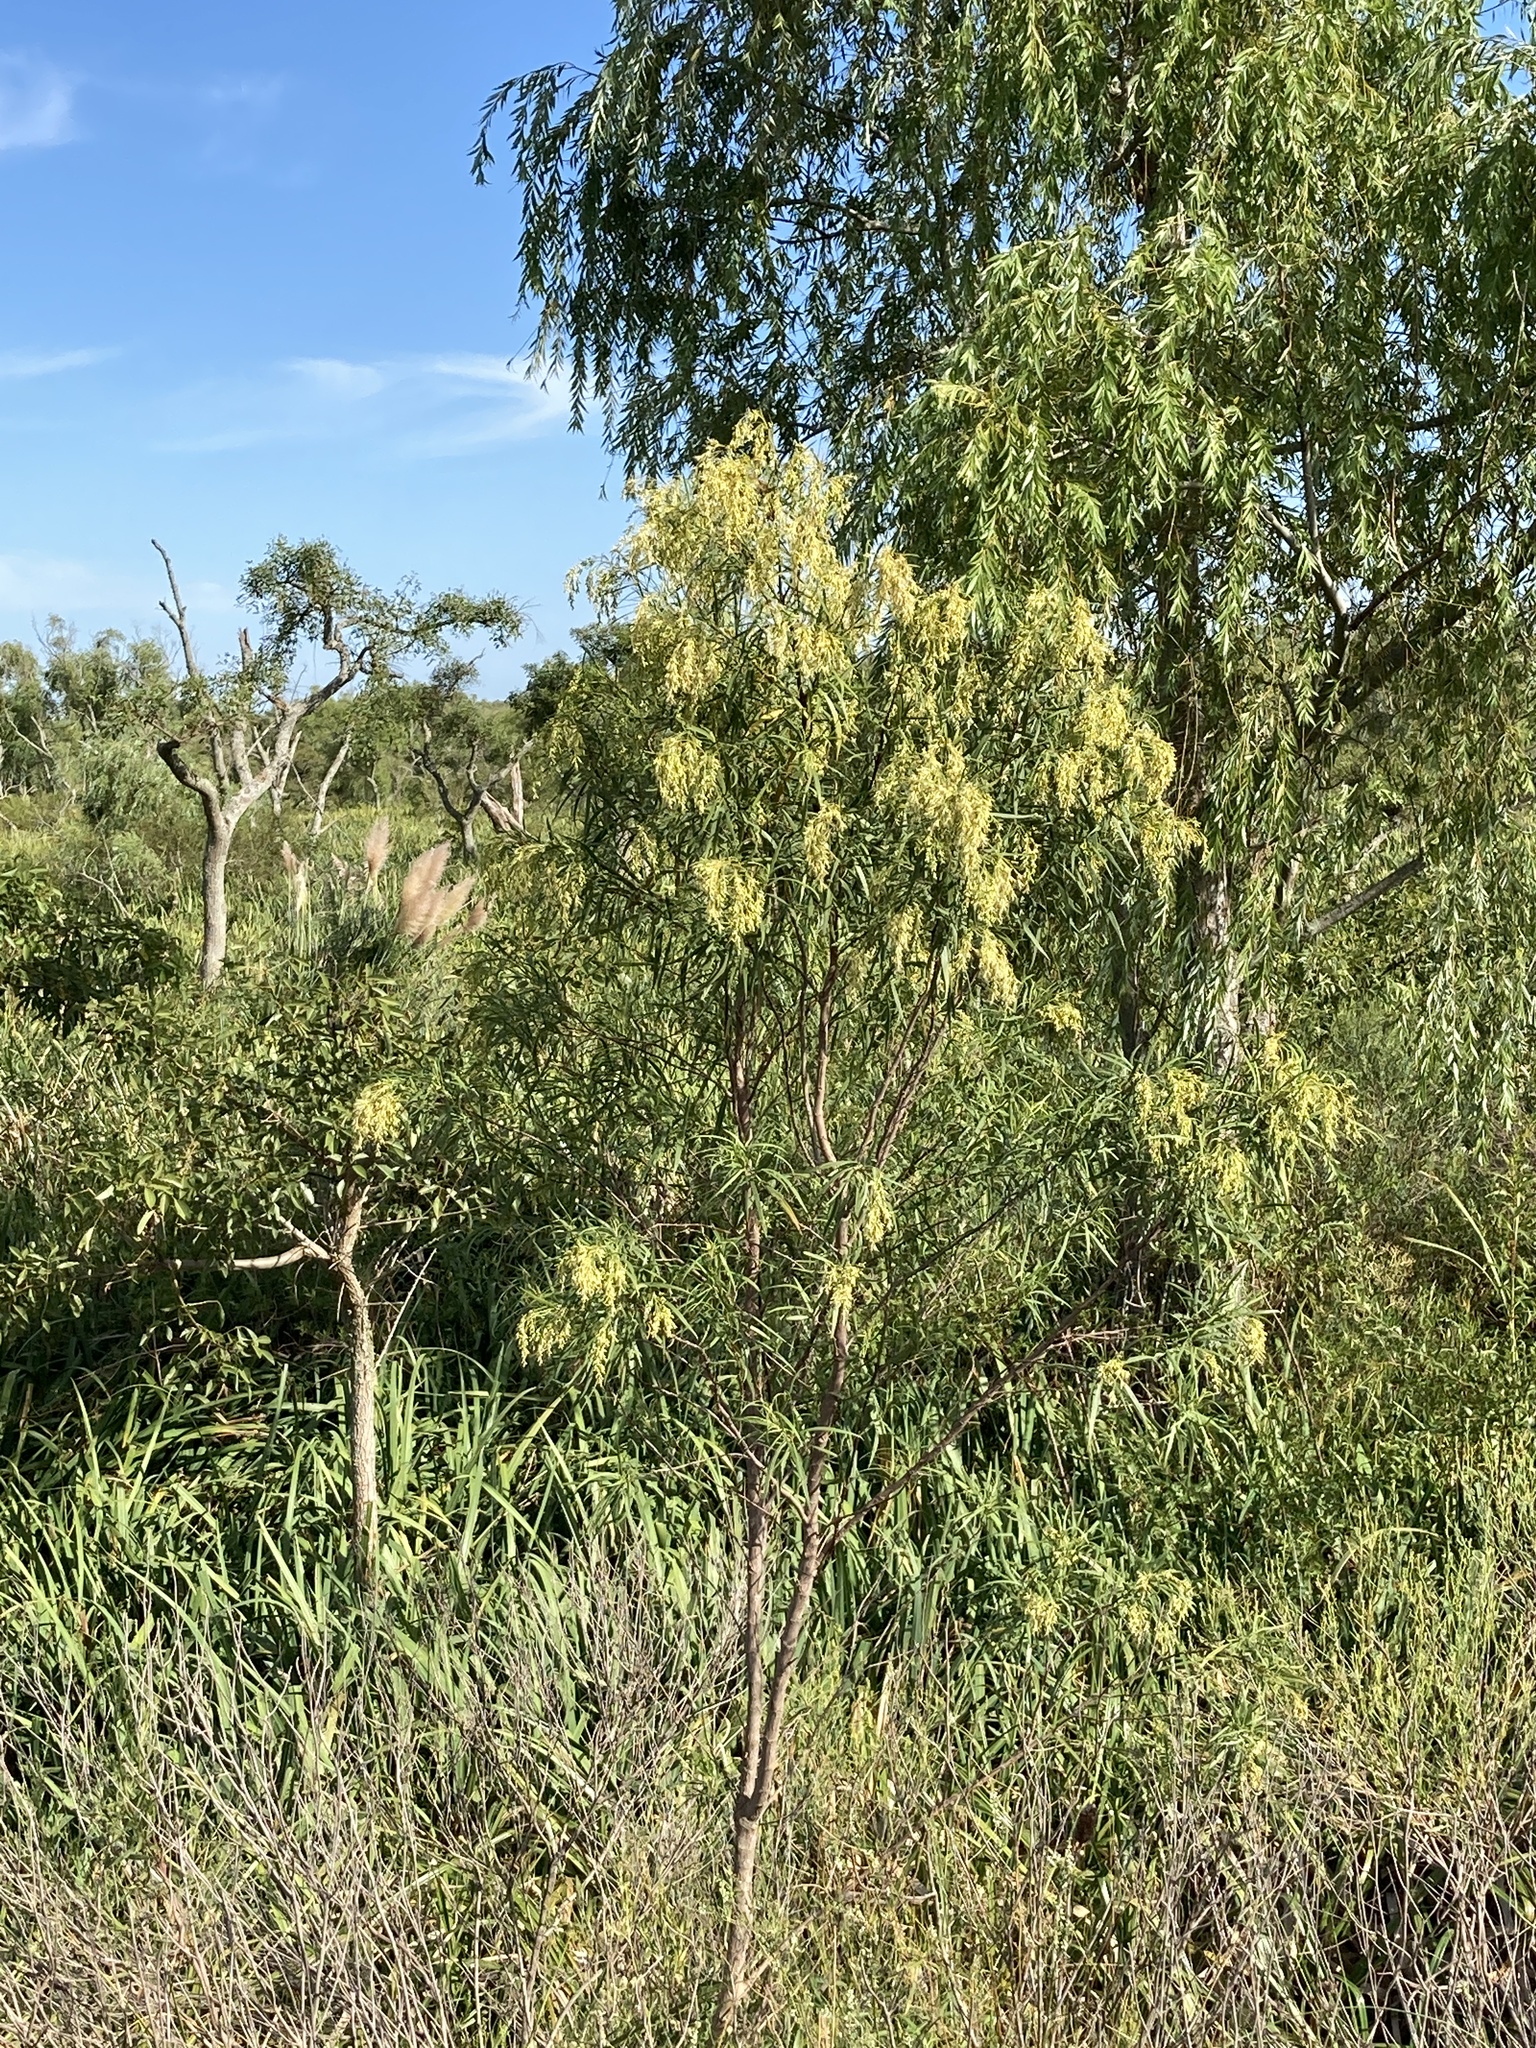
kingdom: Plantae
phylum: Tracheophyta
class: Magnoliopsida
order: Asterales
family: Asteraceae
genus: Raulinoreitzia
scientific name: Raulinoreitzia tremula
